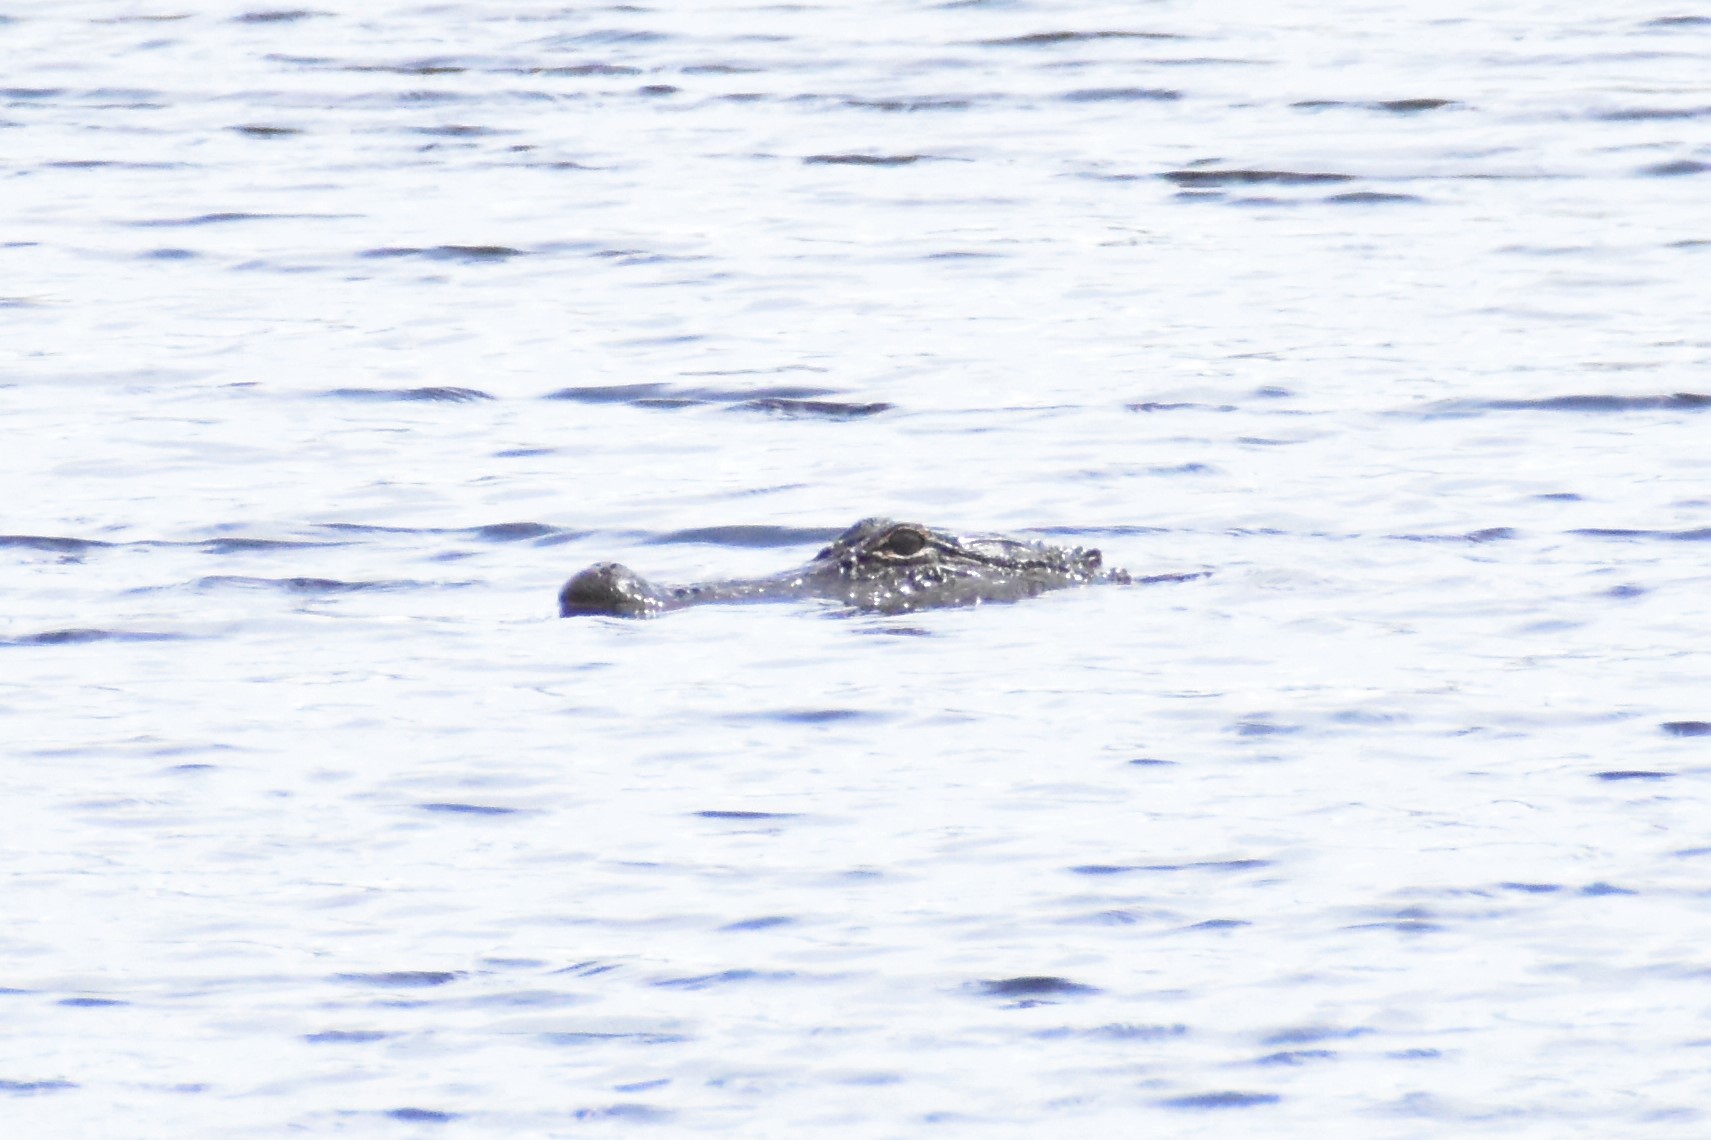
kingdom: Animalia
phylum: Chordata
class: Crocodylia
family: Alligatoridae
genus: Alligator
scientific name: Alligator mississippiensis
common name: American alligator
